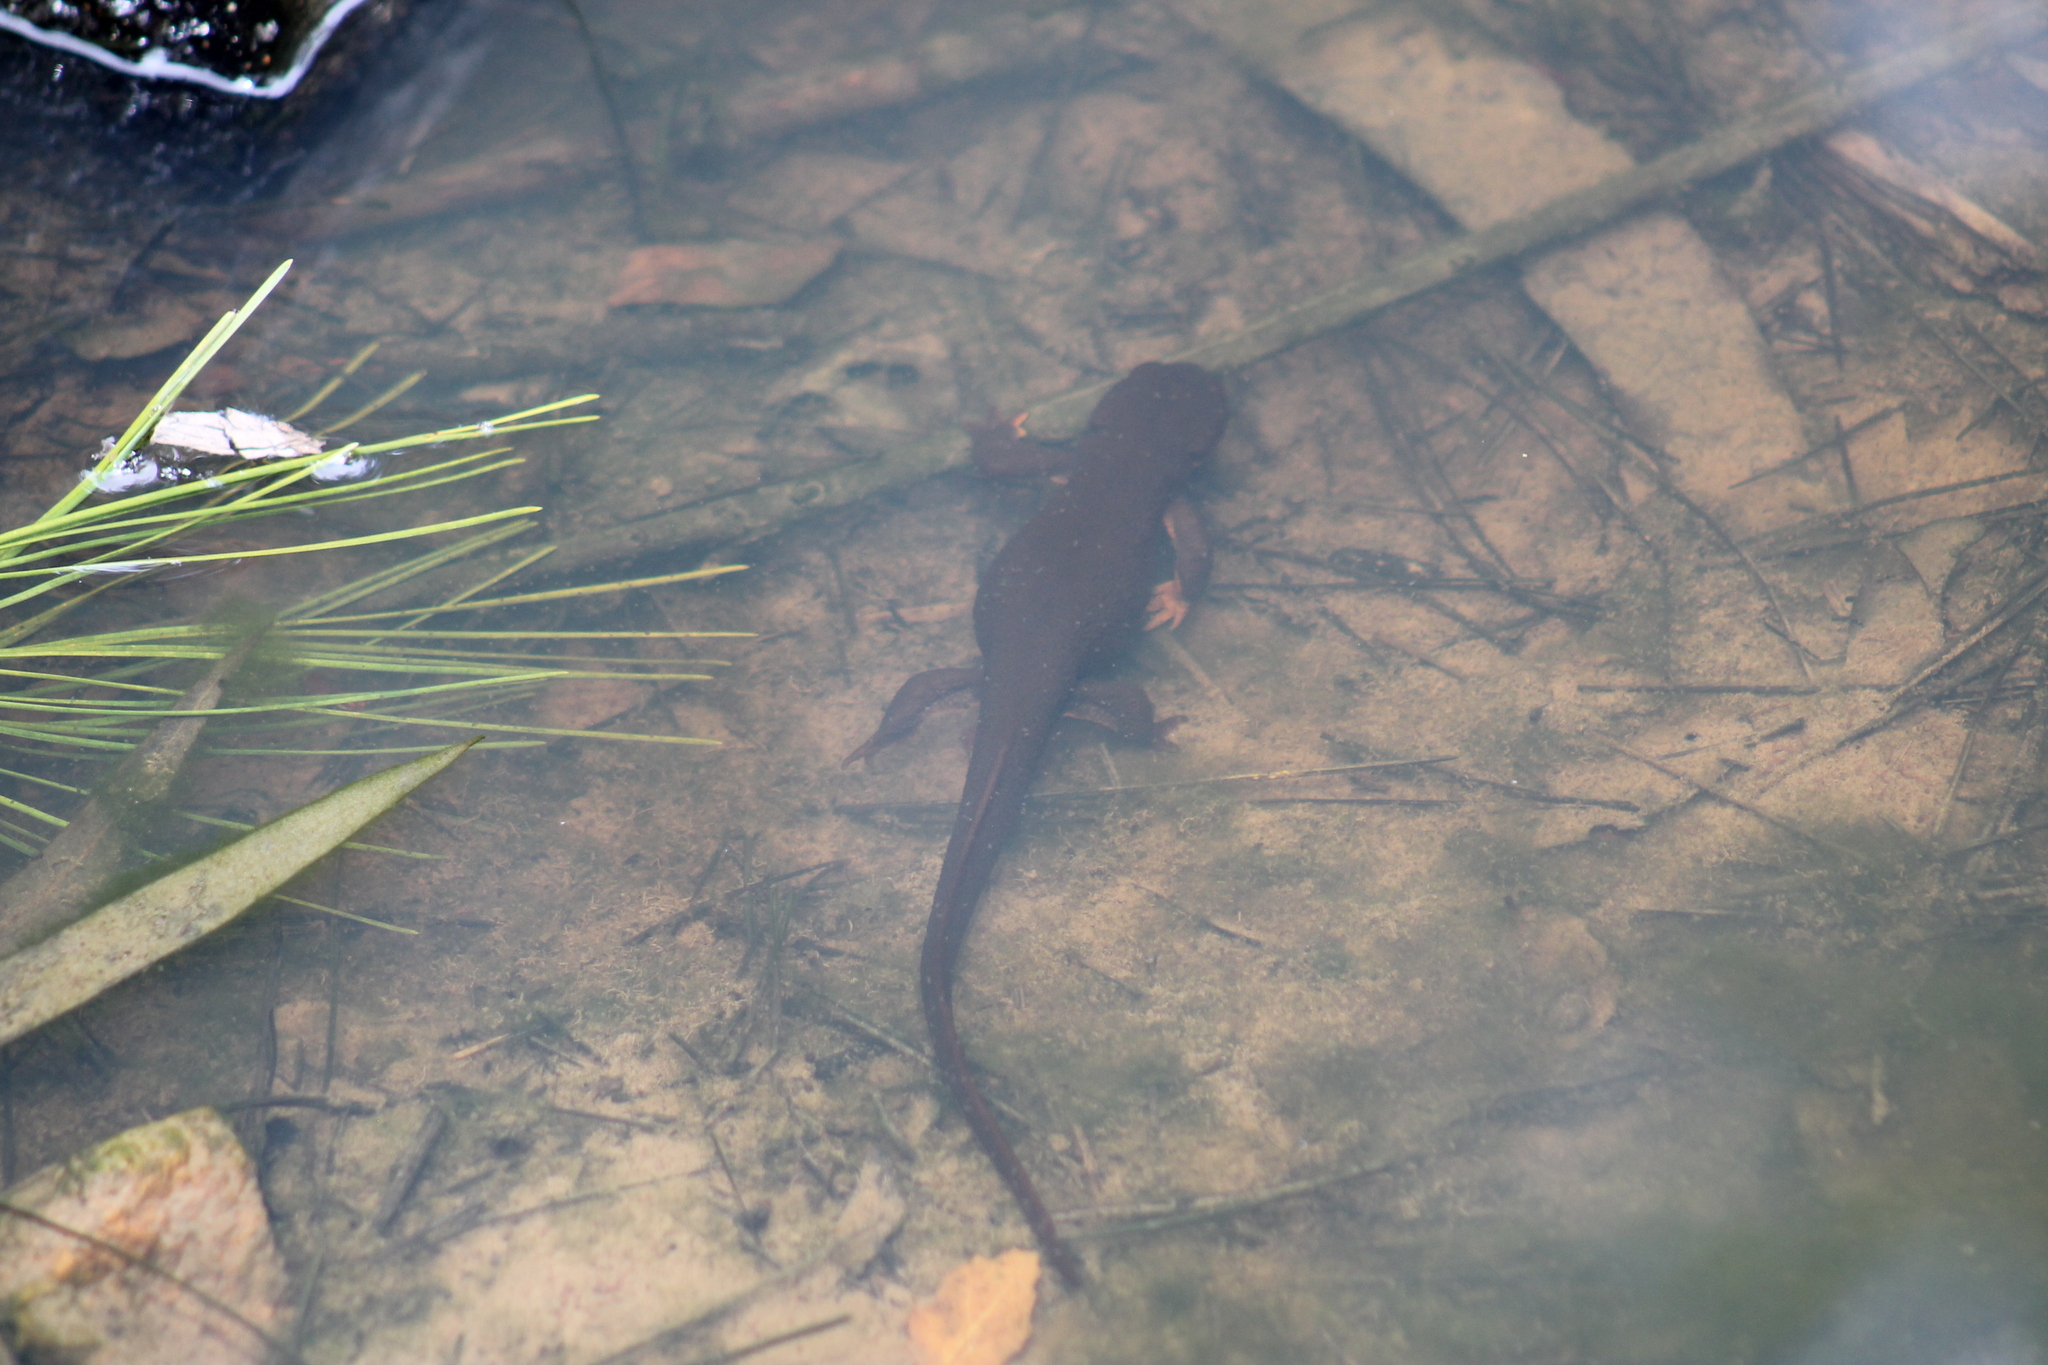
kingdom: Animalia
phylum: Chordata
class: Amphibia
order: Caudata
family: Salamandridae
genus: Taricha
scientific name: Taricha
